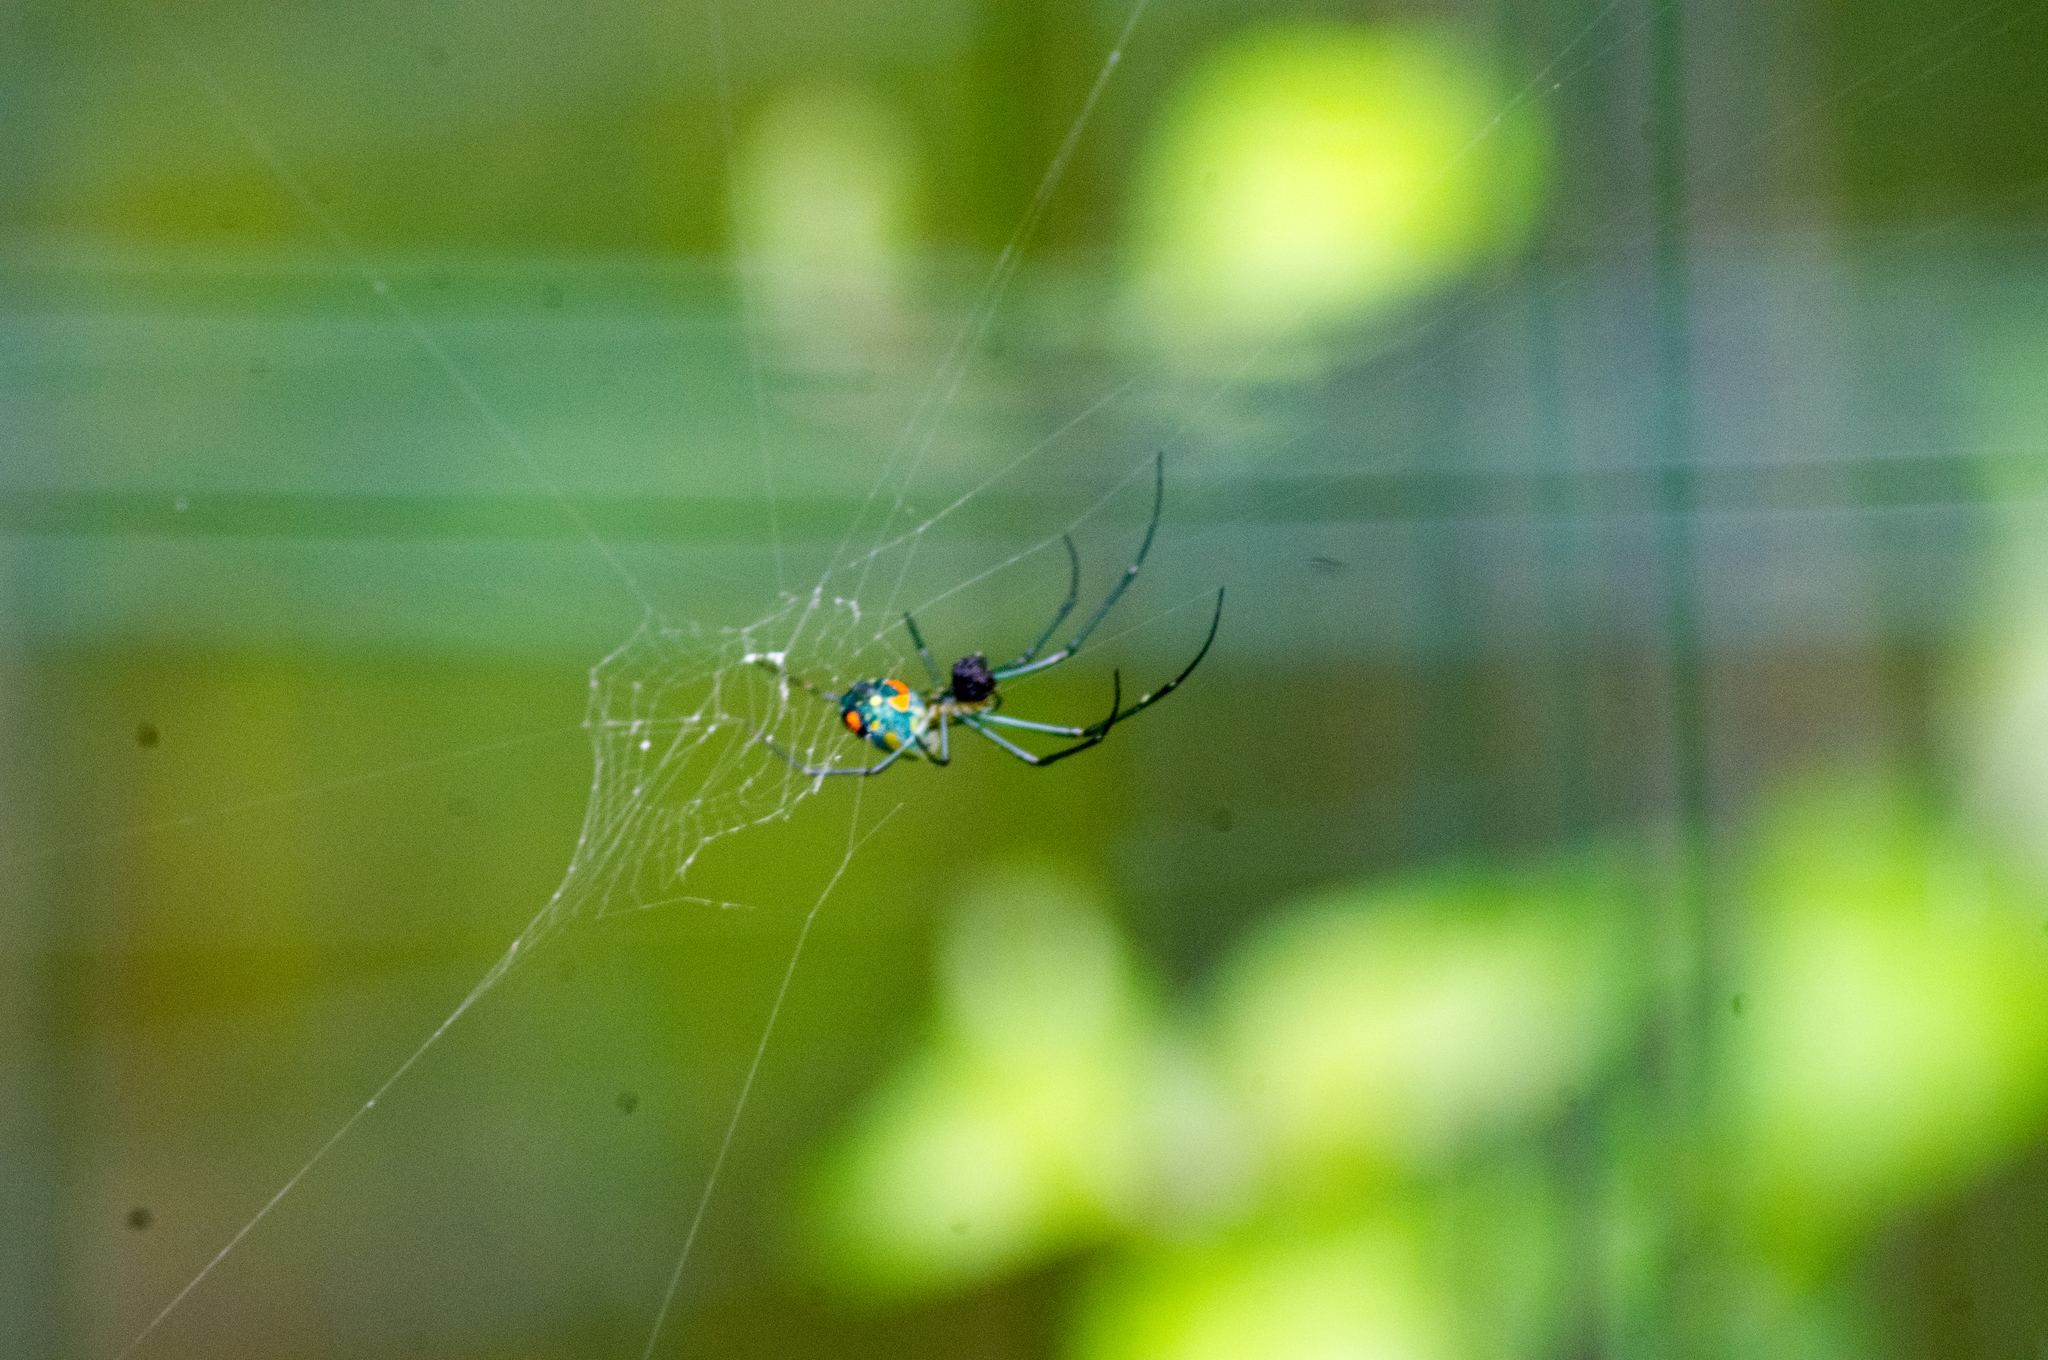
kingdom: Animalia
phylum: Arthropoda
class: Arachnida
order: Araneae
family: Tetragnathidae
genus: Leucauge
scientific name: Leucauge argyrobapta
